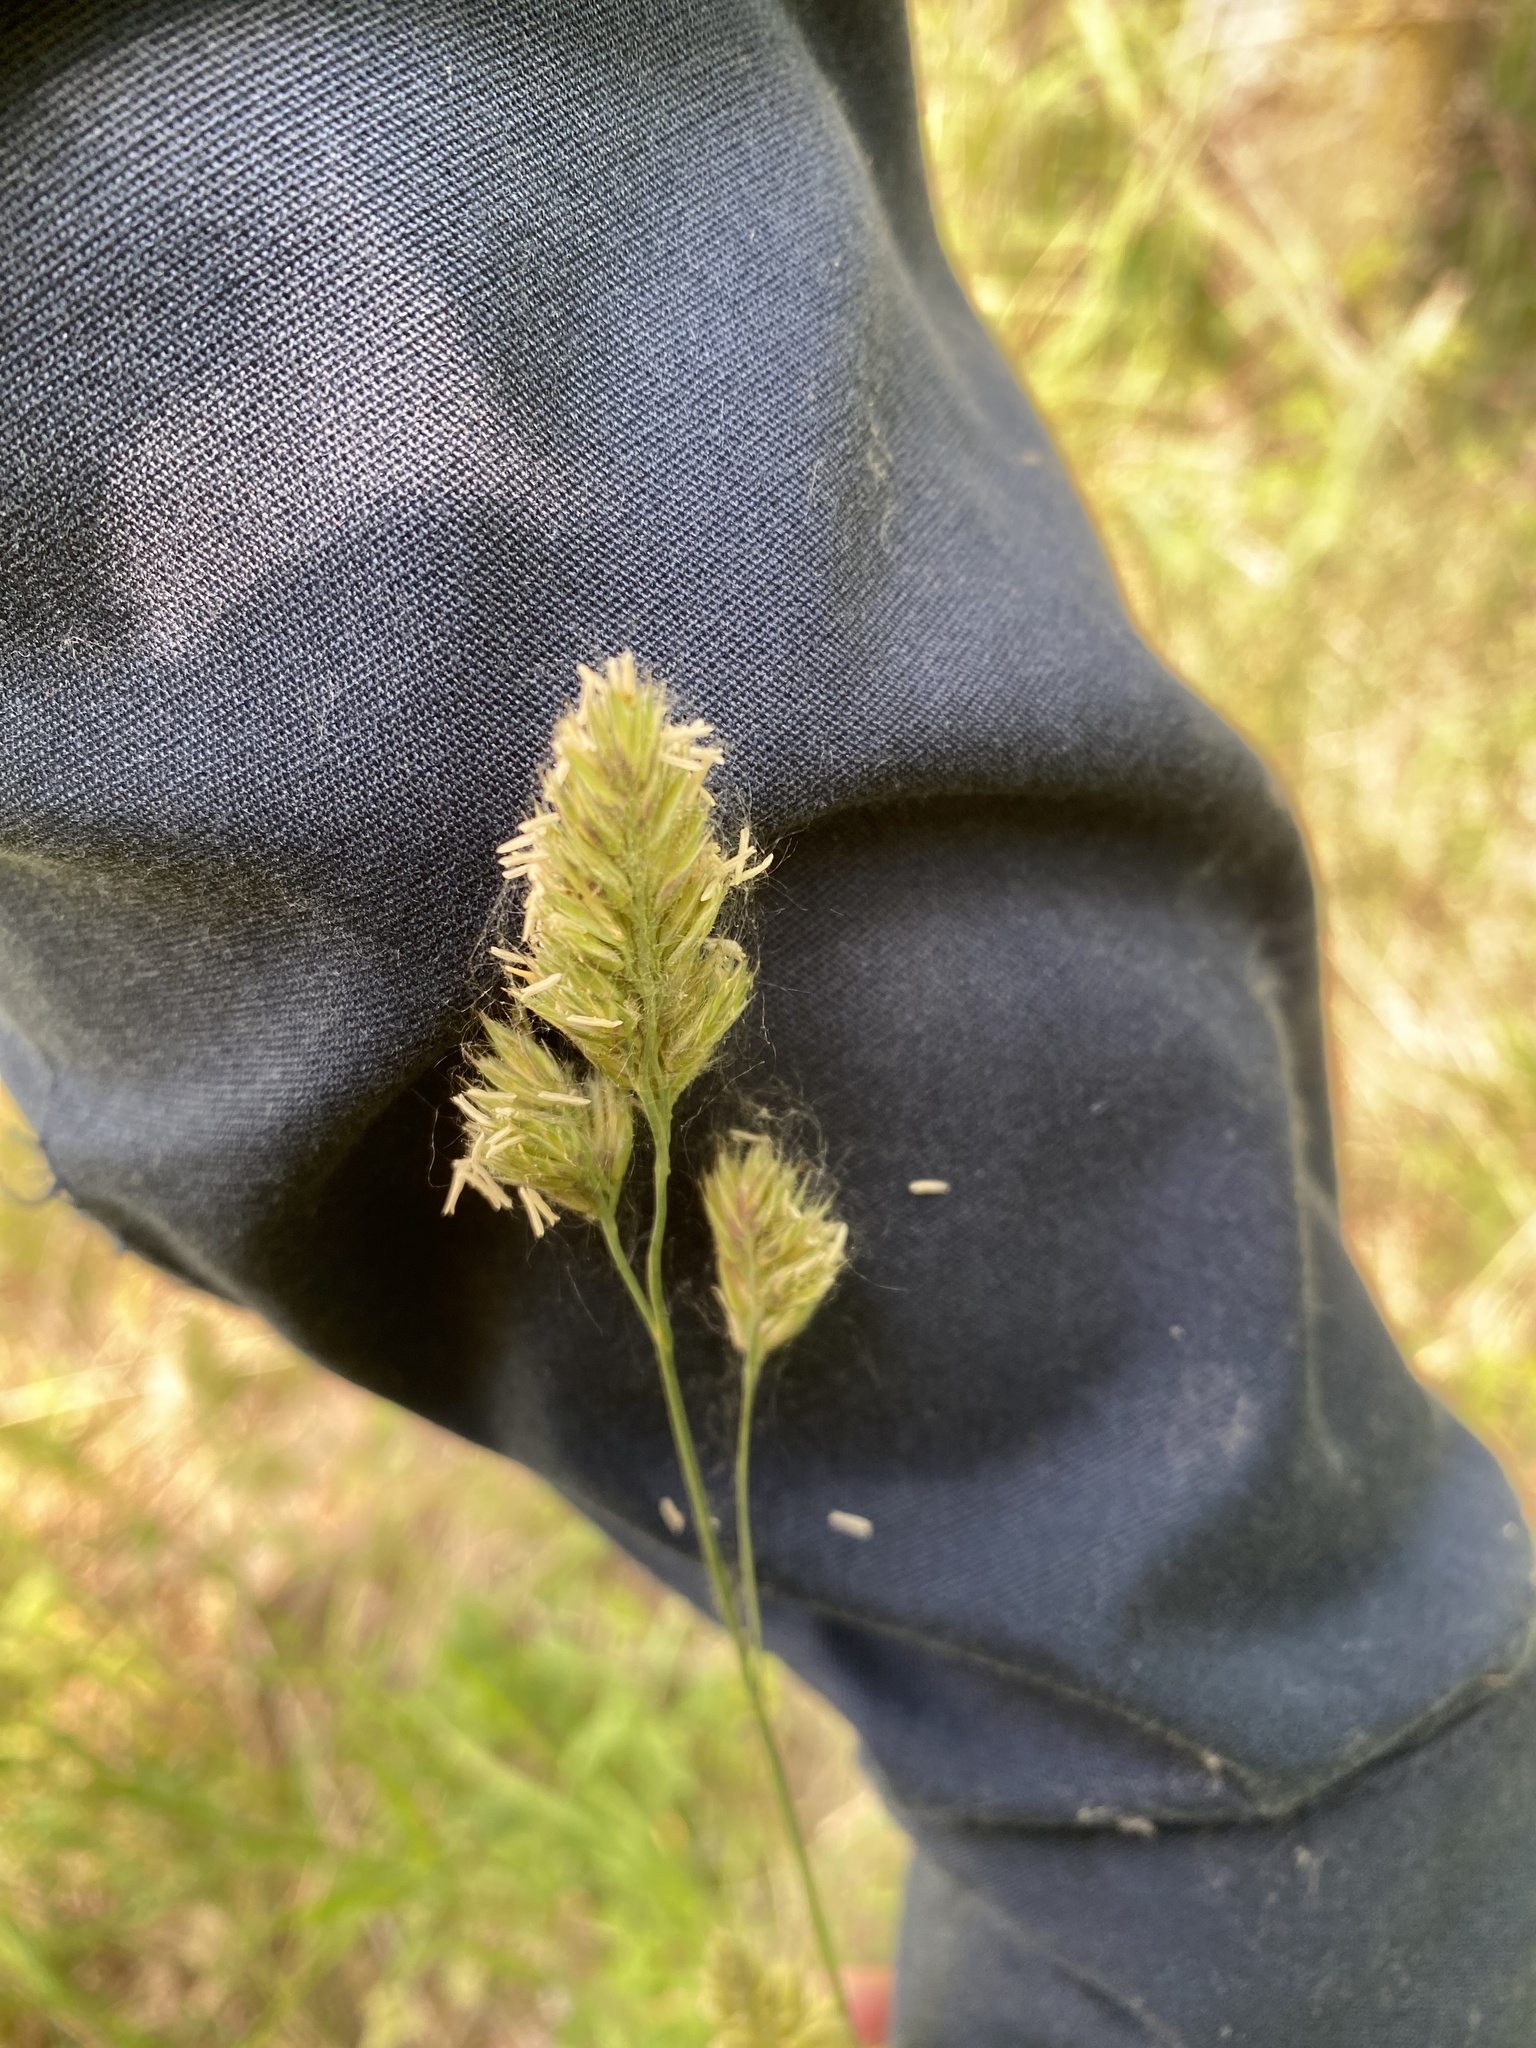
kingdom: Plantae
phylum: Tracheophyta
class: Liliopsida
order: Poales
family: Poaceae
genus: Dactylis
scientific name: Dactylis glomerata
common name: Orchardgrass
